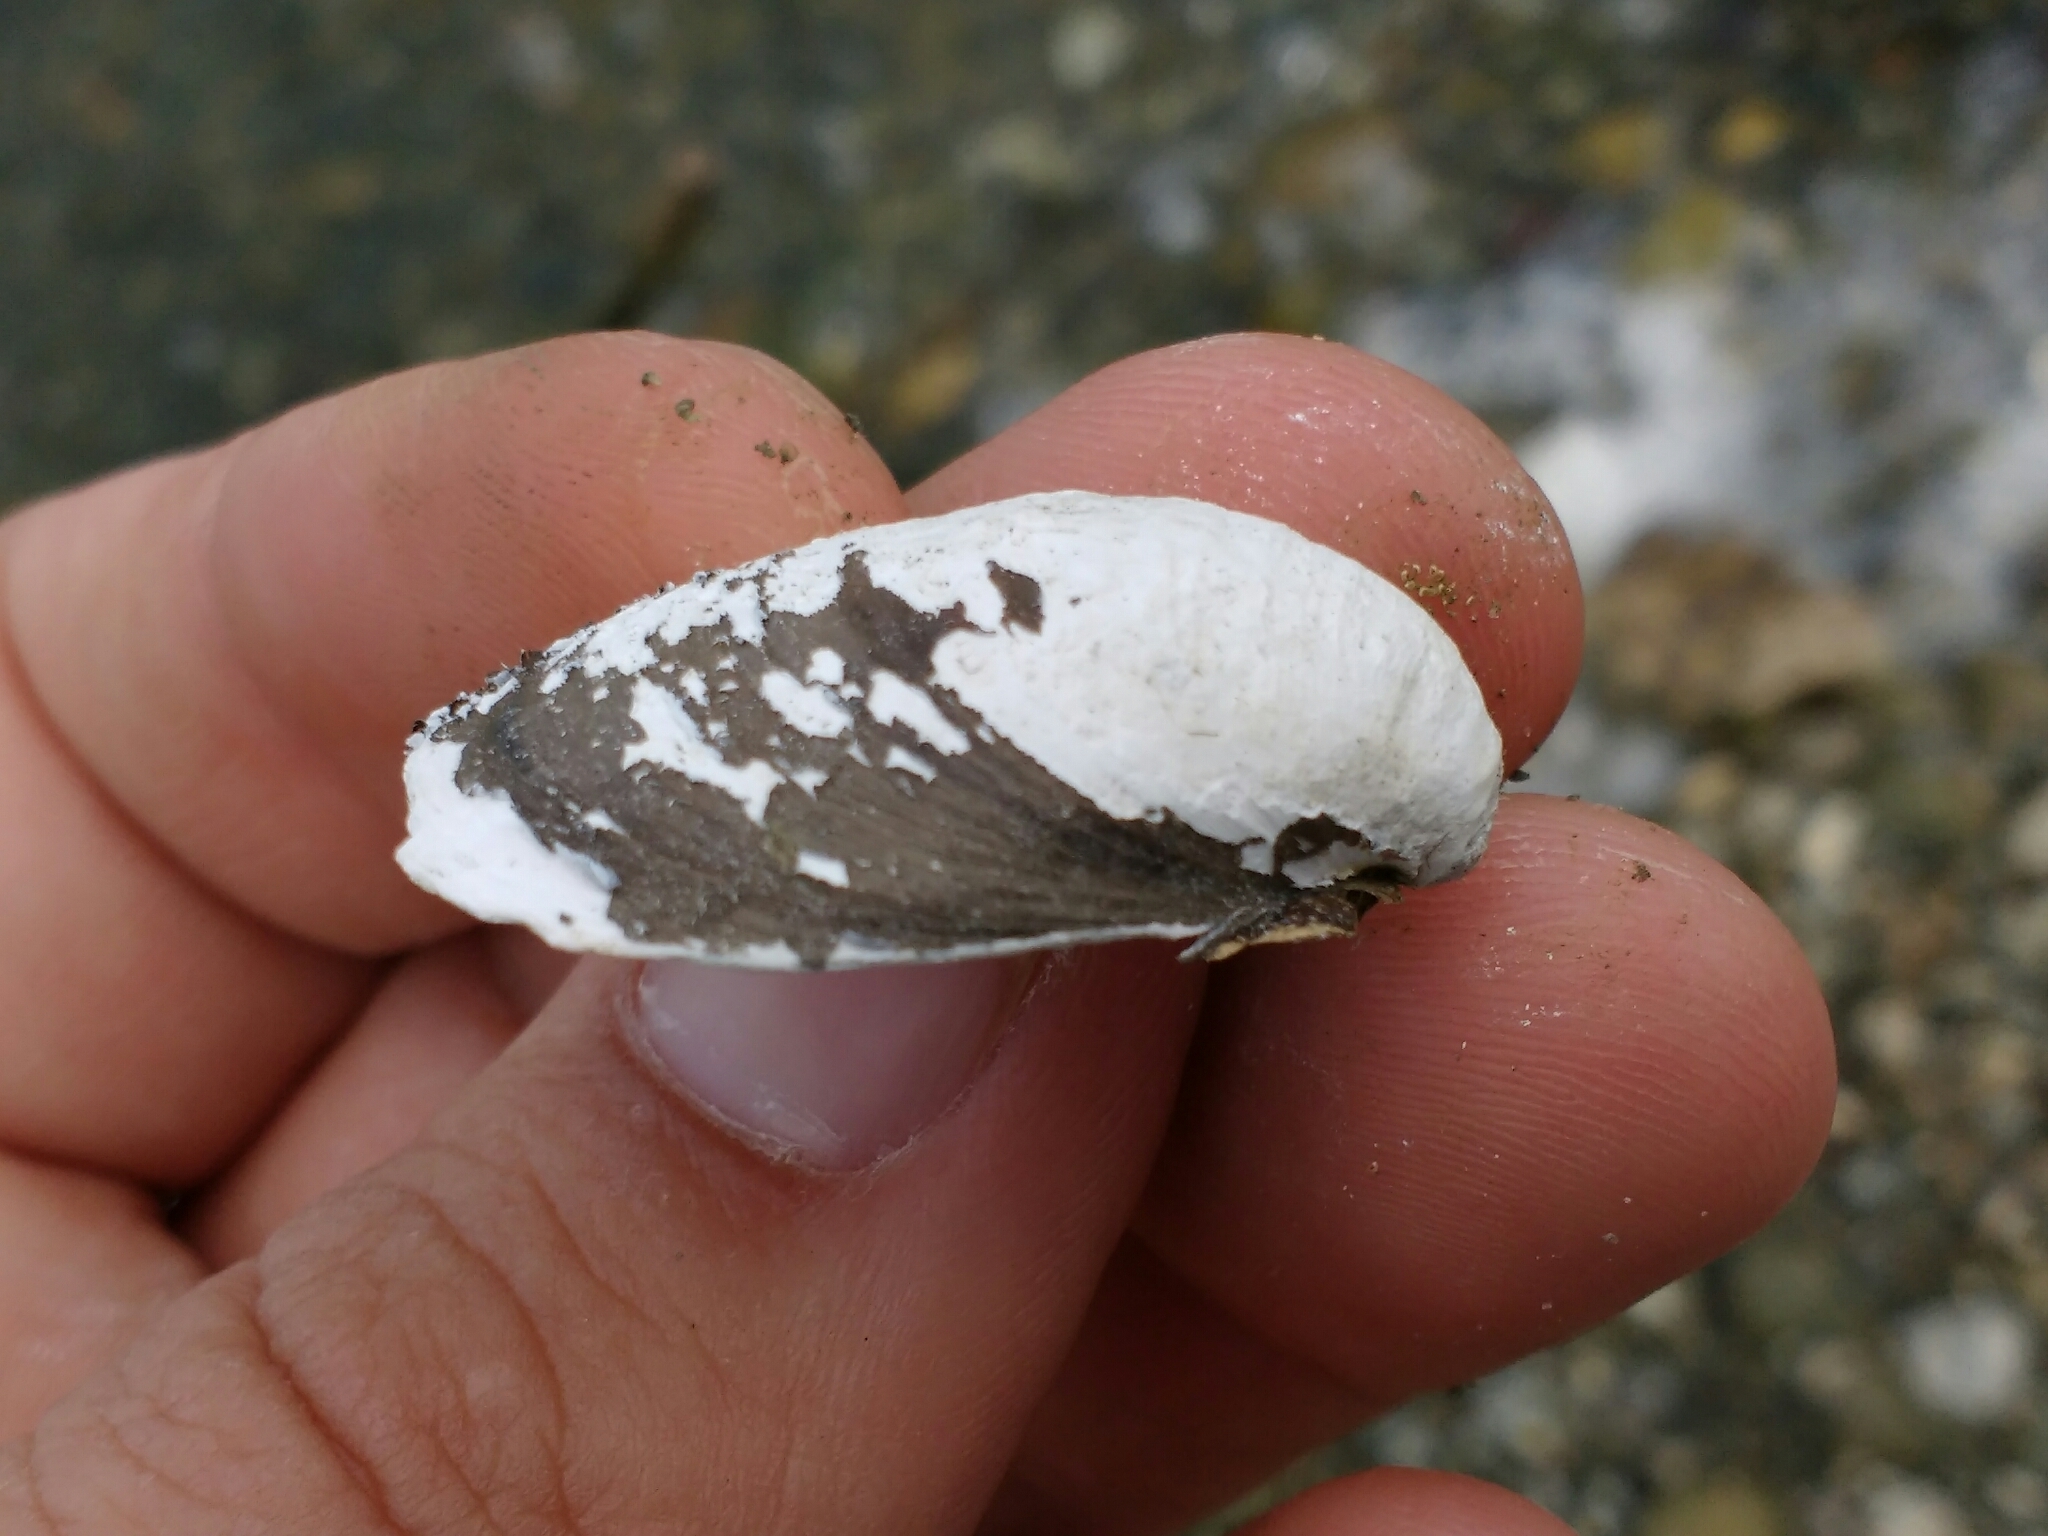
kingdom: Animalia
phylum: Mollusca
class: Bivalvia
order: Venerida
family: Cyrenidae
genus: Corbicula
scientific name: Corbicula fluminea
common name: Asian clam
